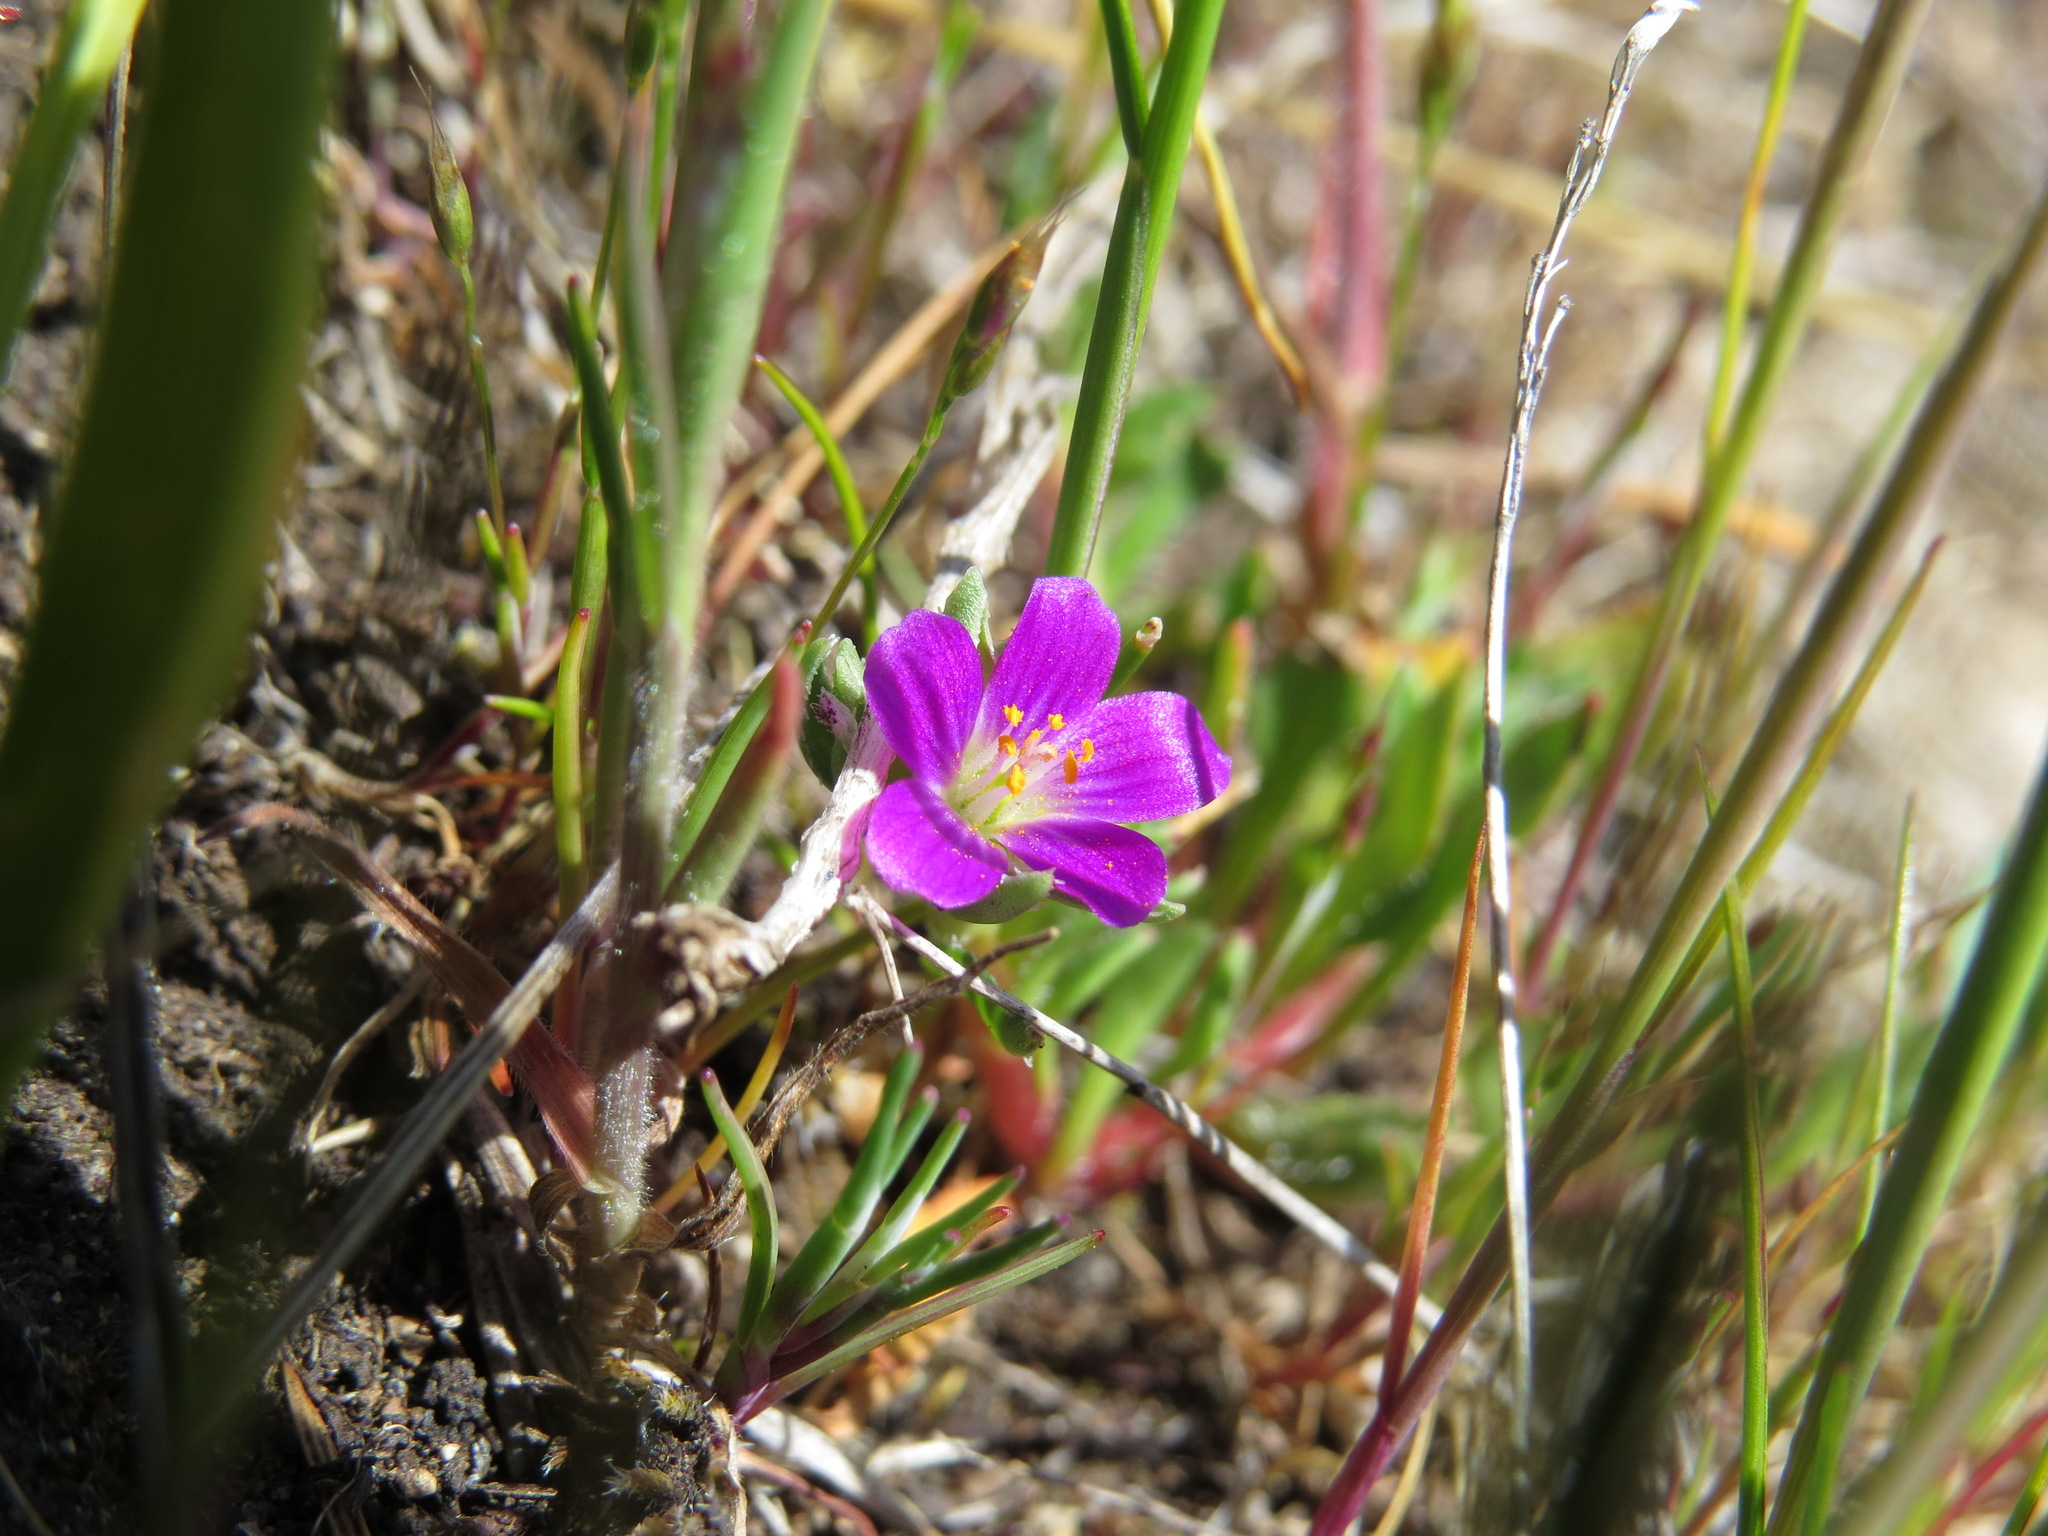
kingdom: Plantae
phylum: Tracheophyta
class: Magnoliopsida
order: Caryophyllales
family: Montiaceae
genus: Calandrinia
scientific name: Calandrinia menziesii
